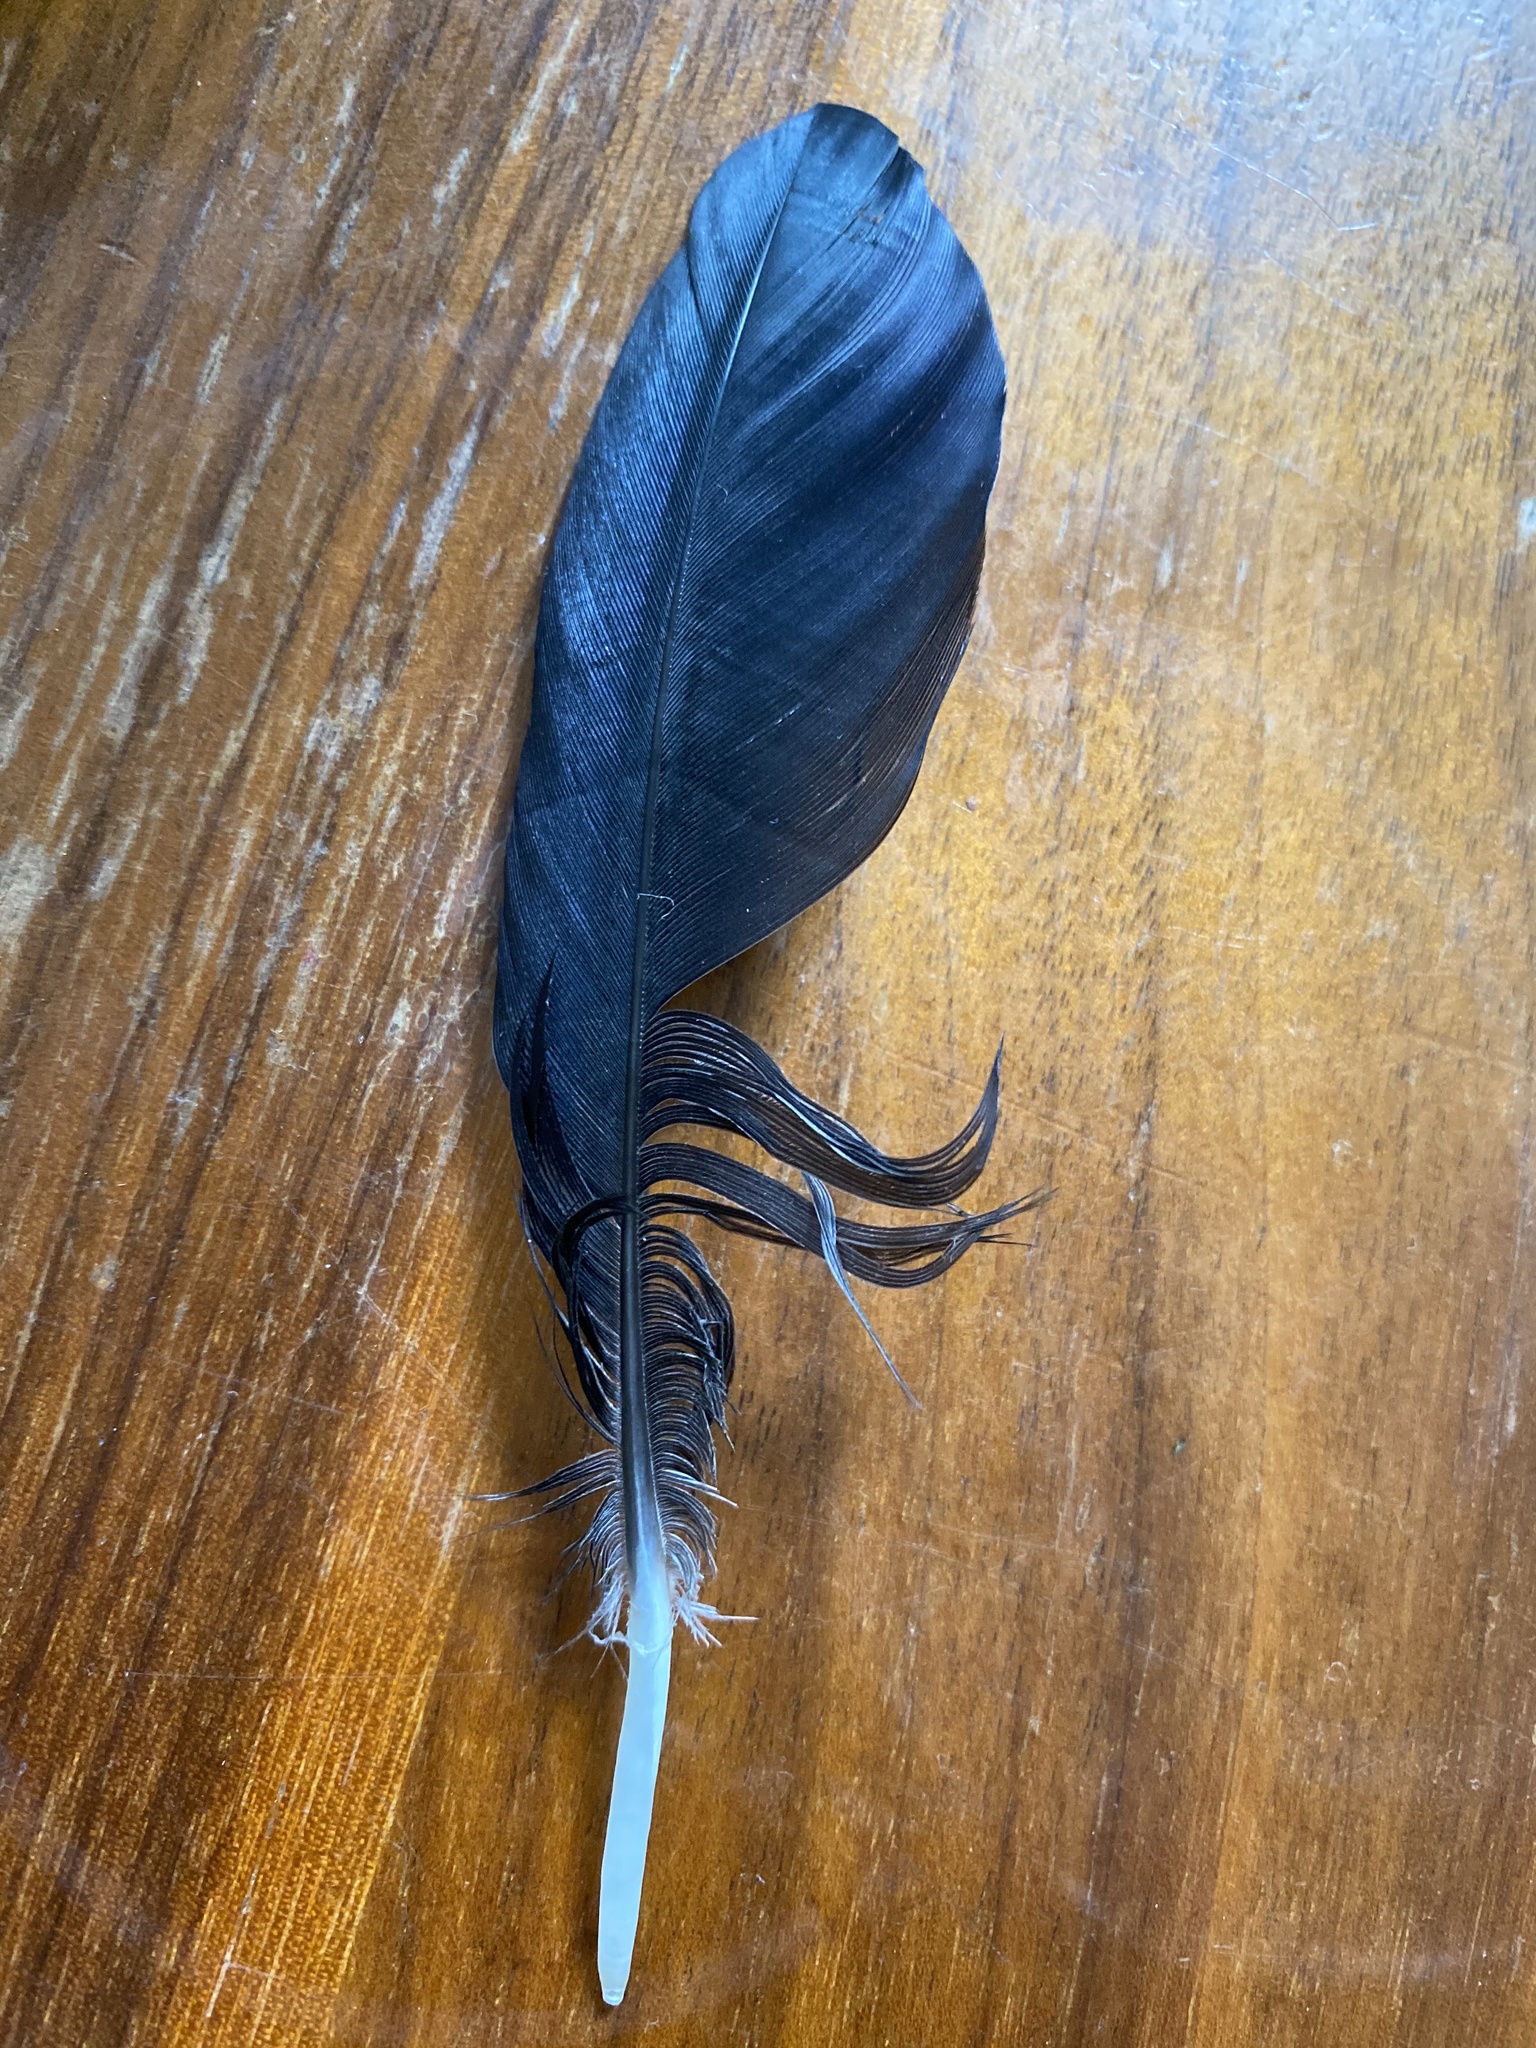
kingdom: Animalia
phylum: Chordata
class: Aves
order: Passeriformes
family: Corvidae
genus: Corvus
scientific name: Corvus corax
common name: Common raven
